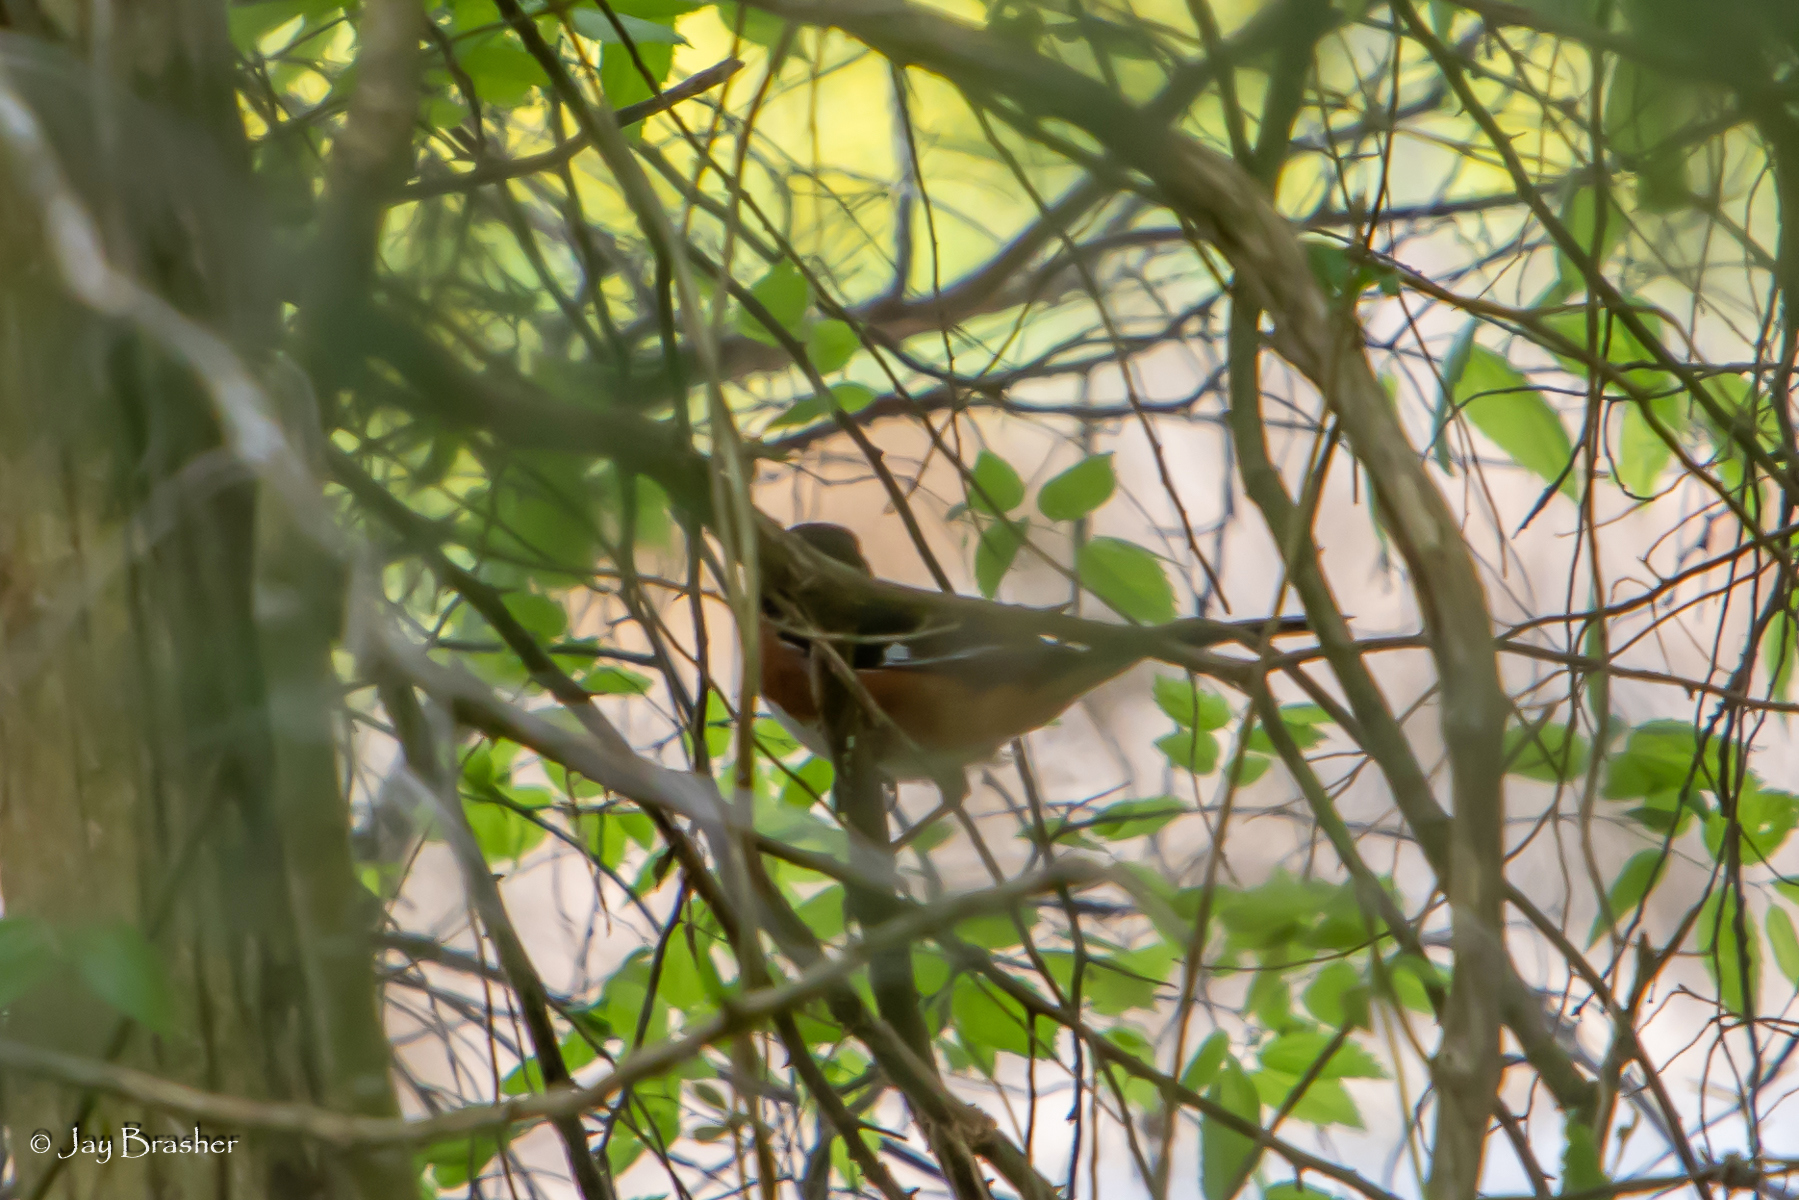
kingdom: Animalia
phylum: Chordata
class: Aves
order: Passeriformes
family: Passerellidae
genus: Pipilo
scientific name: Pipilo erythrophthalmus
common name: Eastern towhee
